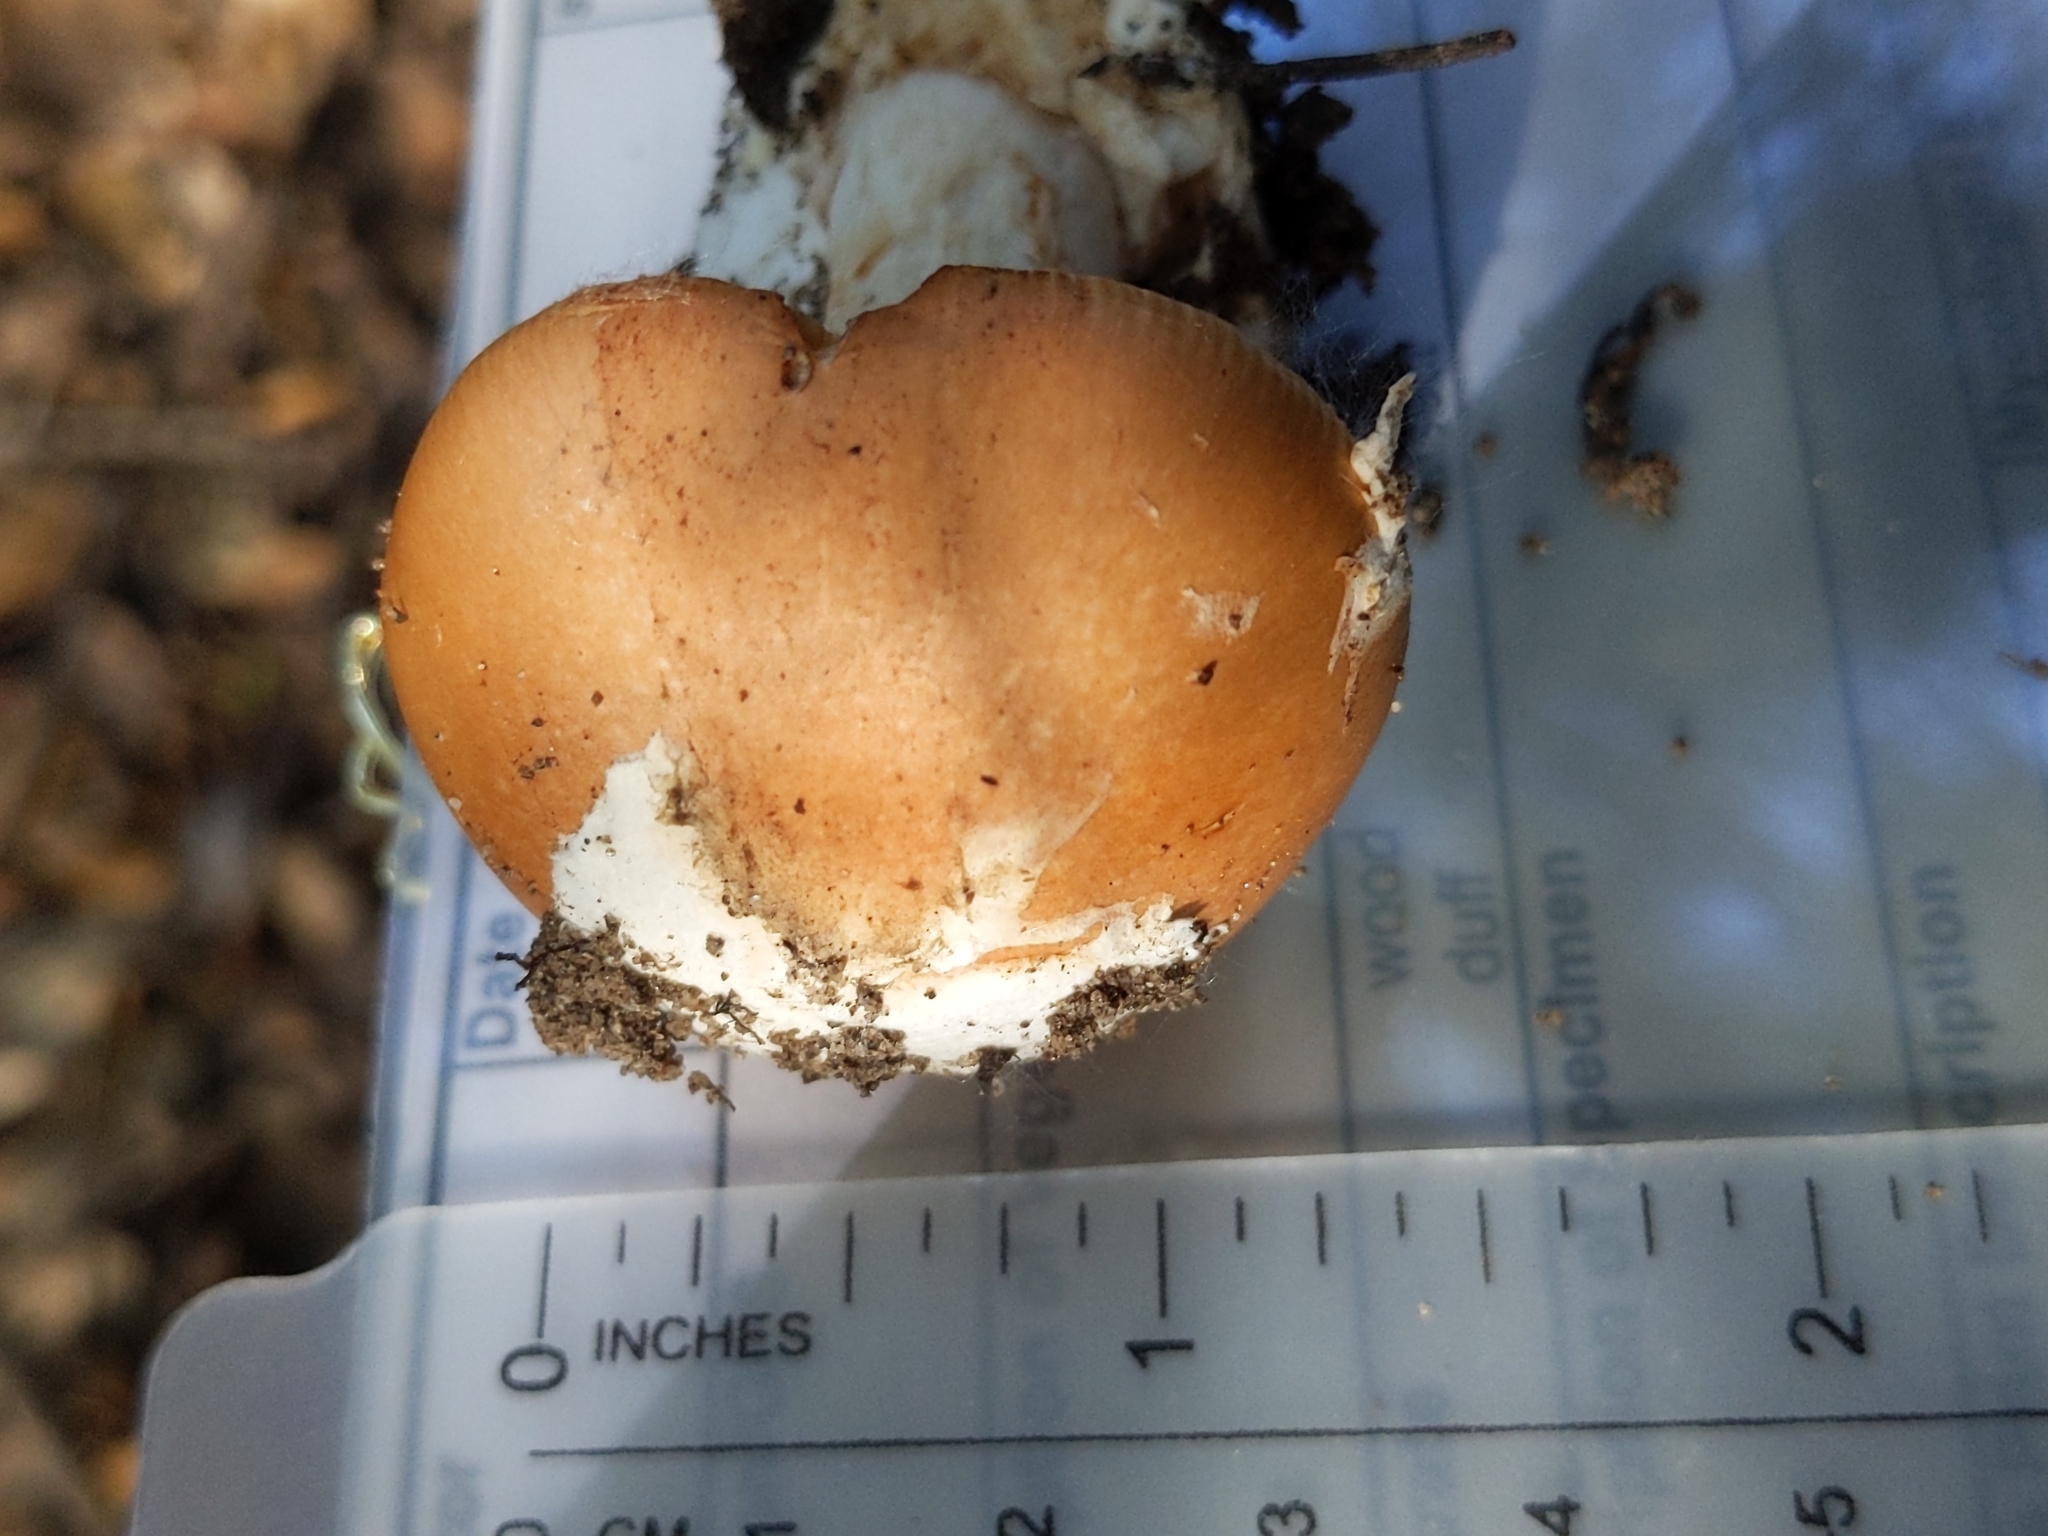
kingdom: Fungi
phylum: Basidiomycota
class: Agaricomycetes
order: Agaricales
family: Amanitaceae
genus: Amanita
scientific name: Amanita velosa
